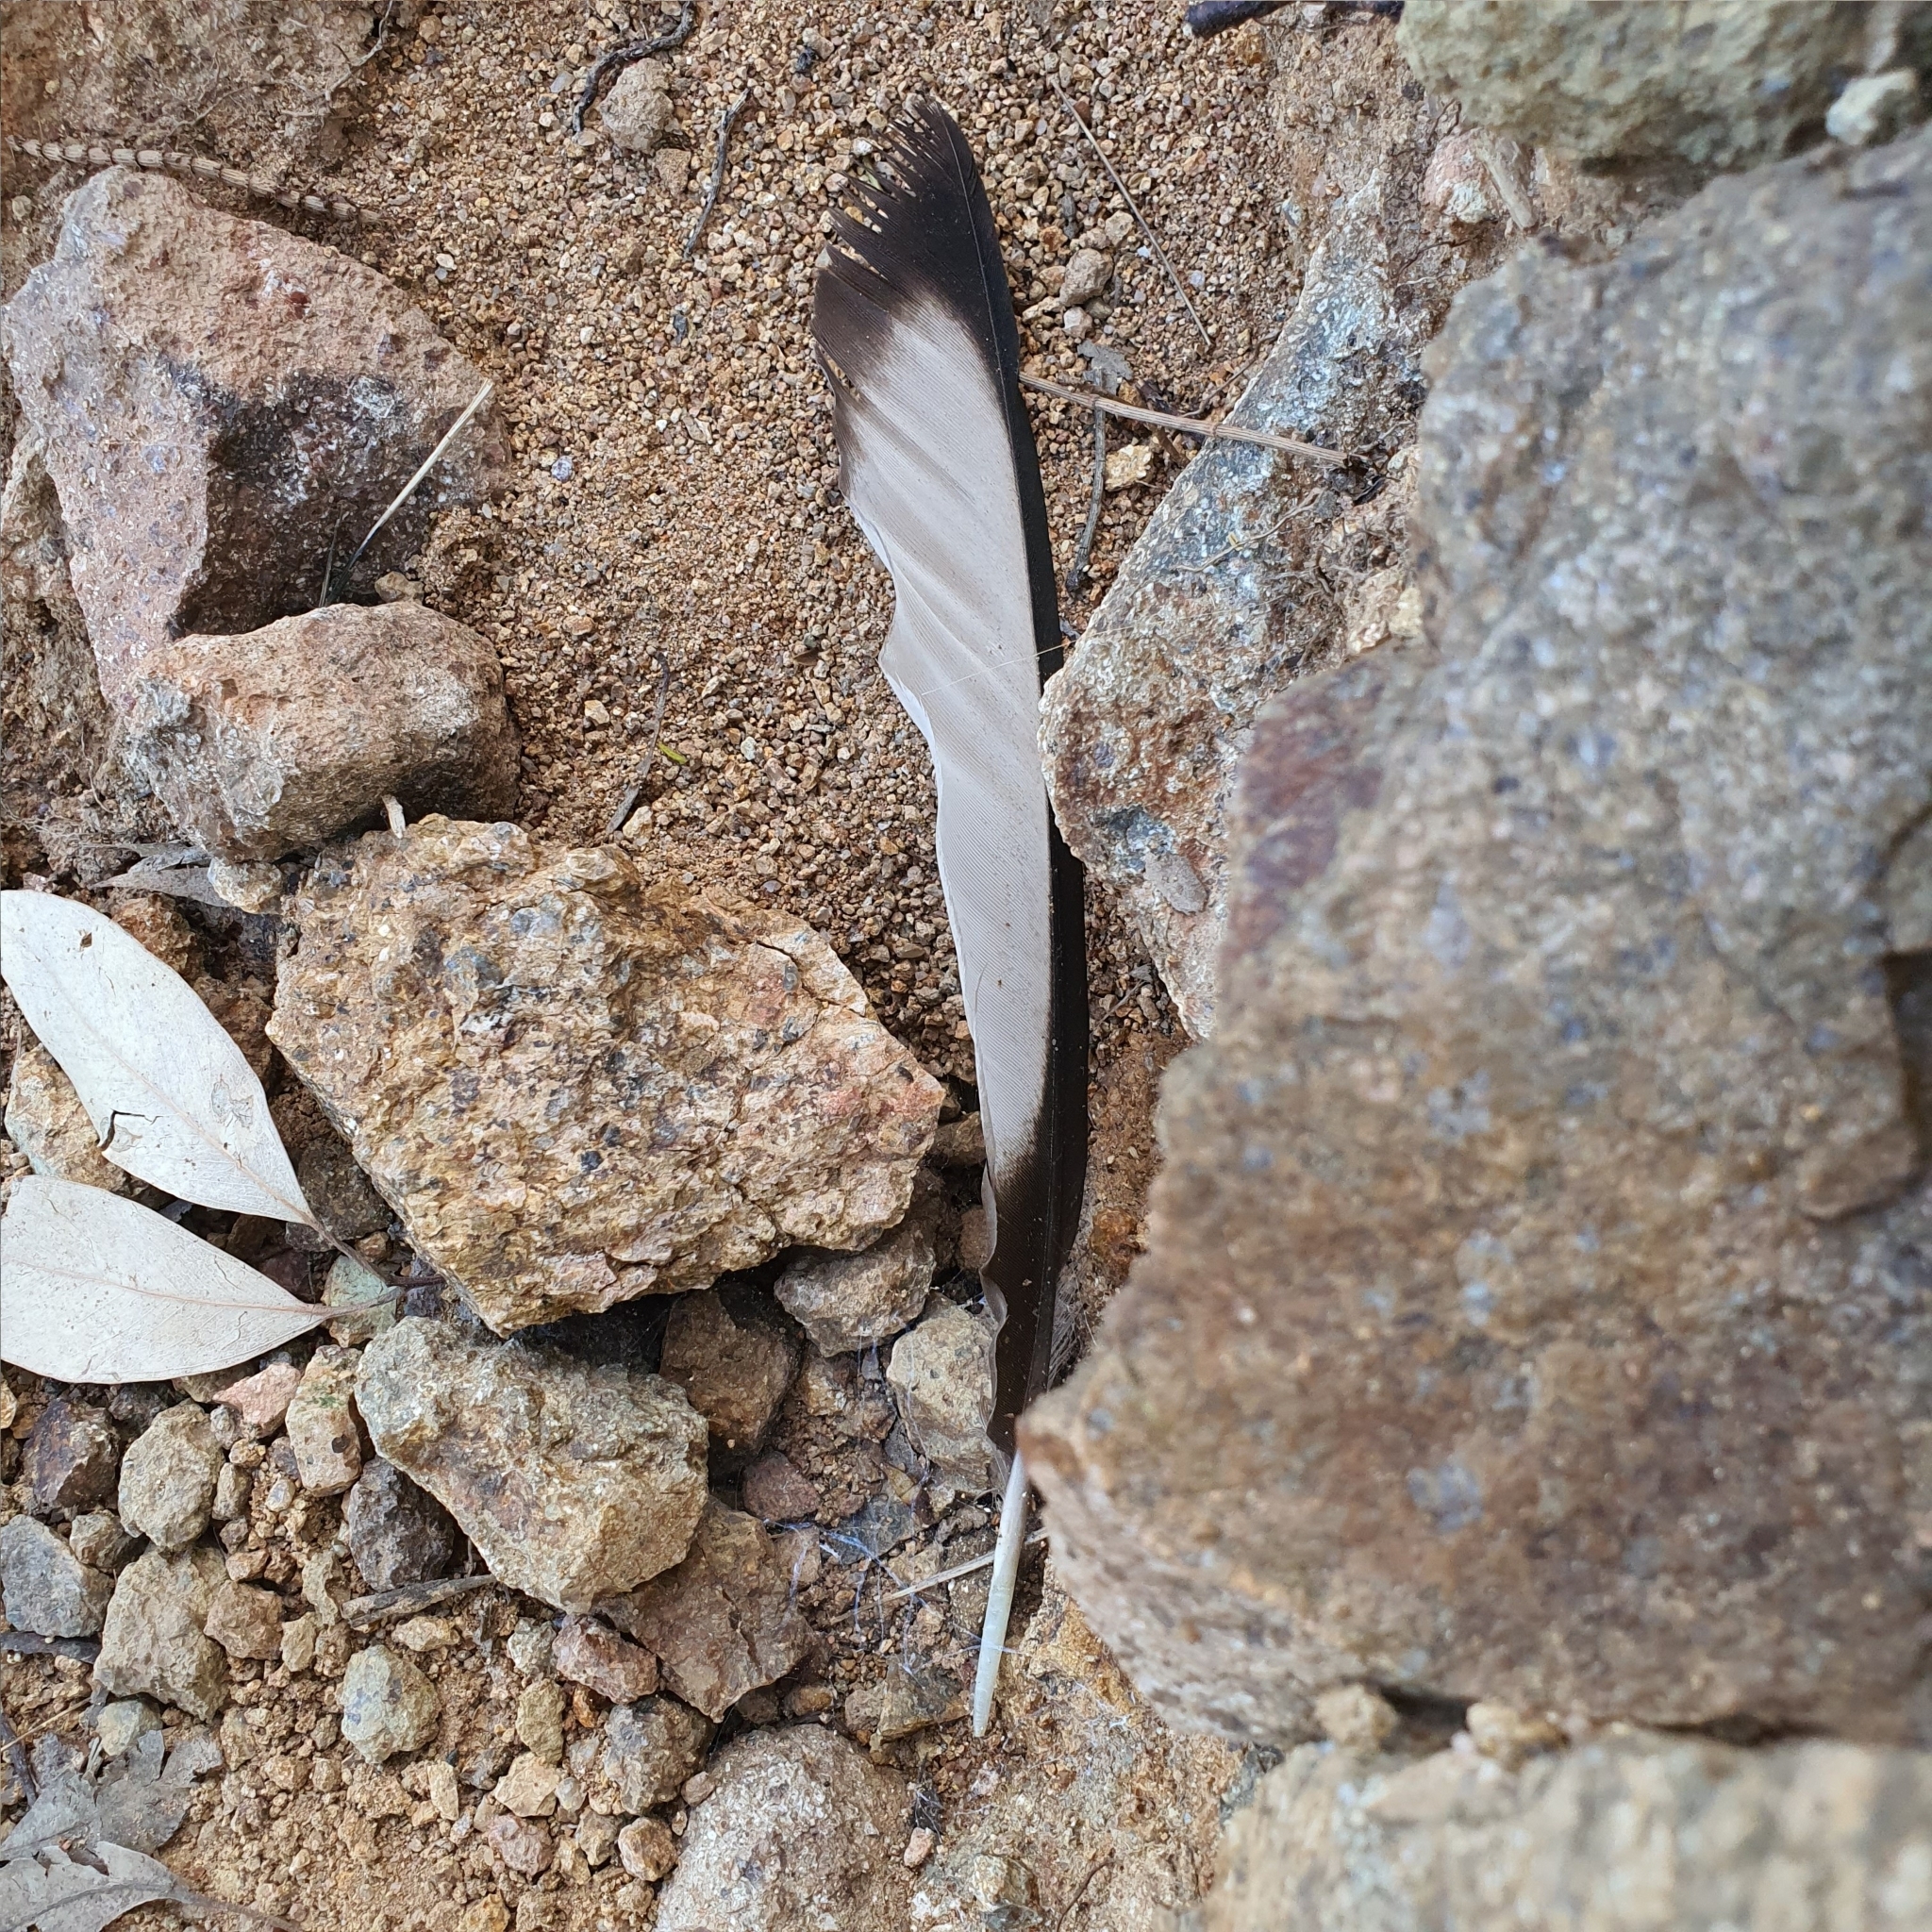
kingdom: Animalia
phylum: Chordata
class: Aves
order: Passeriformes
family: Corcoracidae
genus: Corcorax
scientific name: Corcorax melanoramphos
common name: White-winged chough
